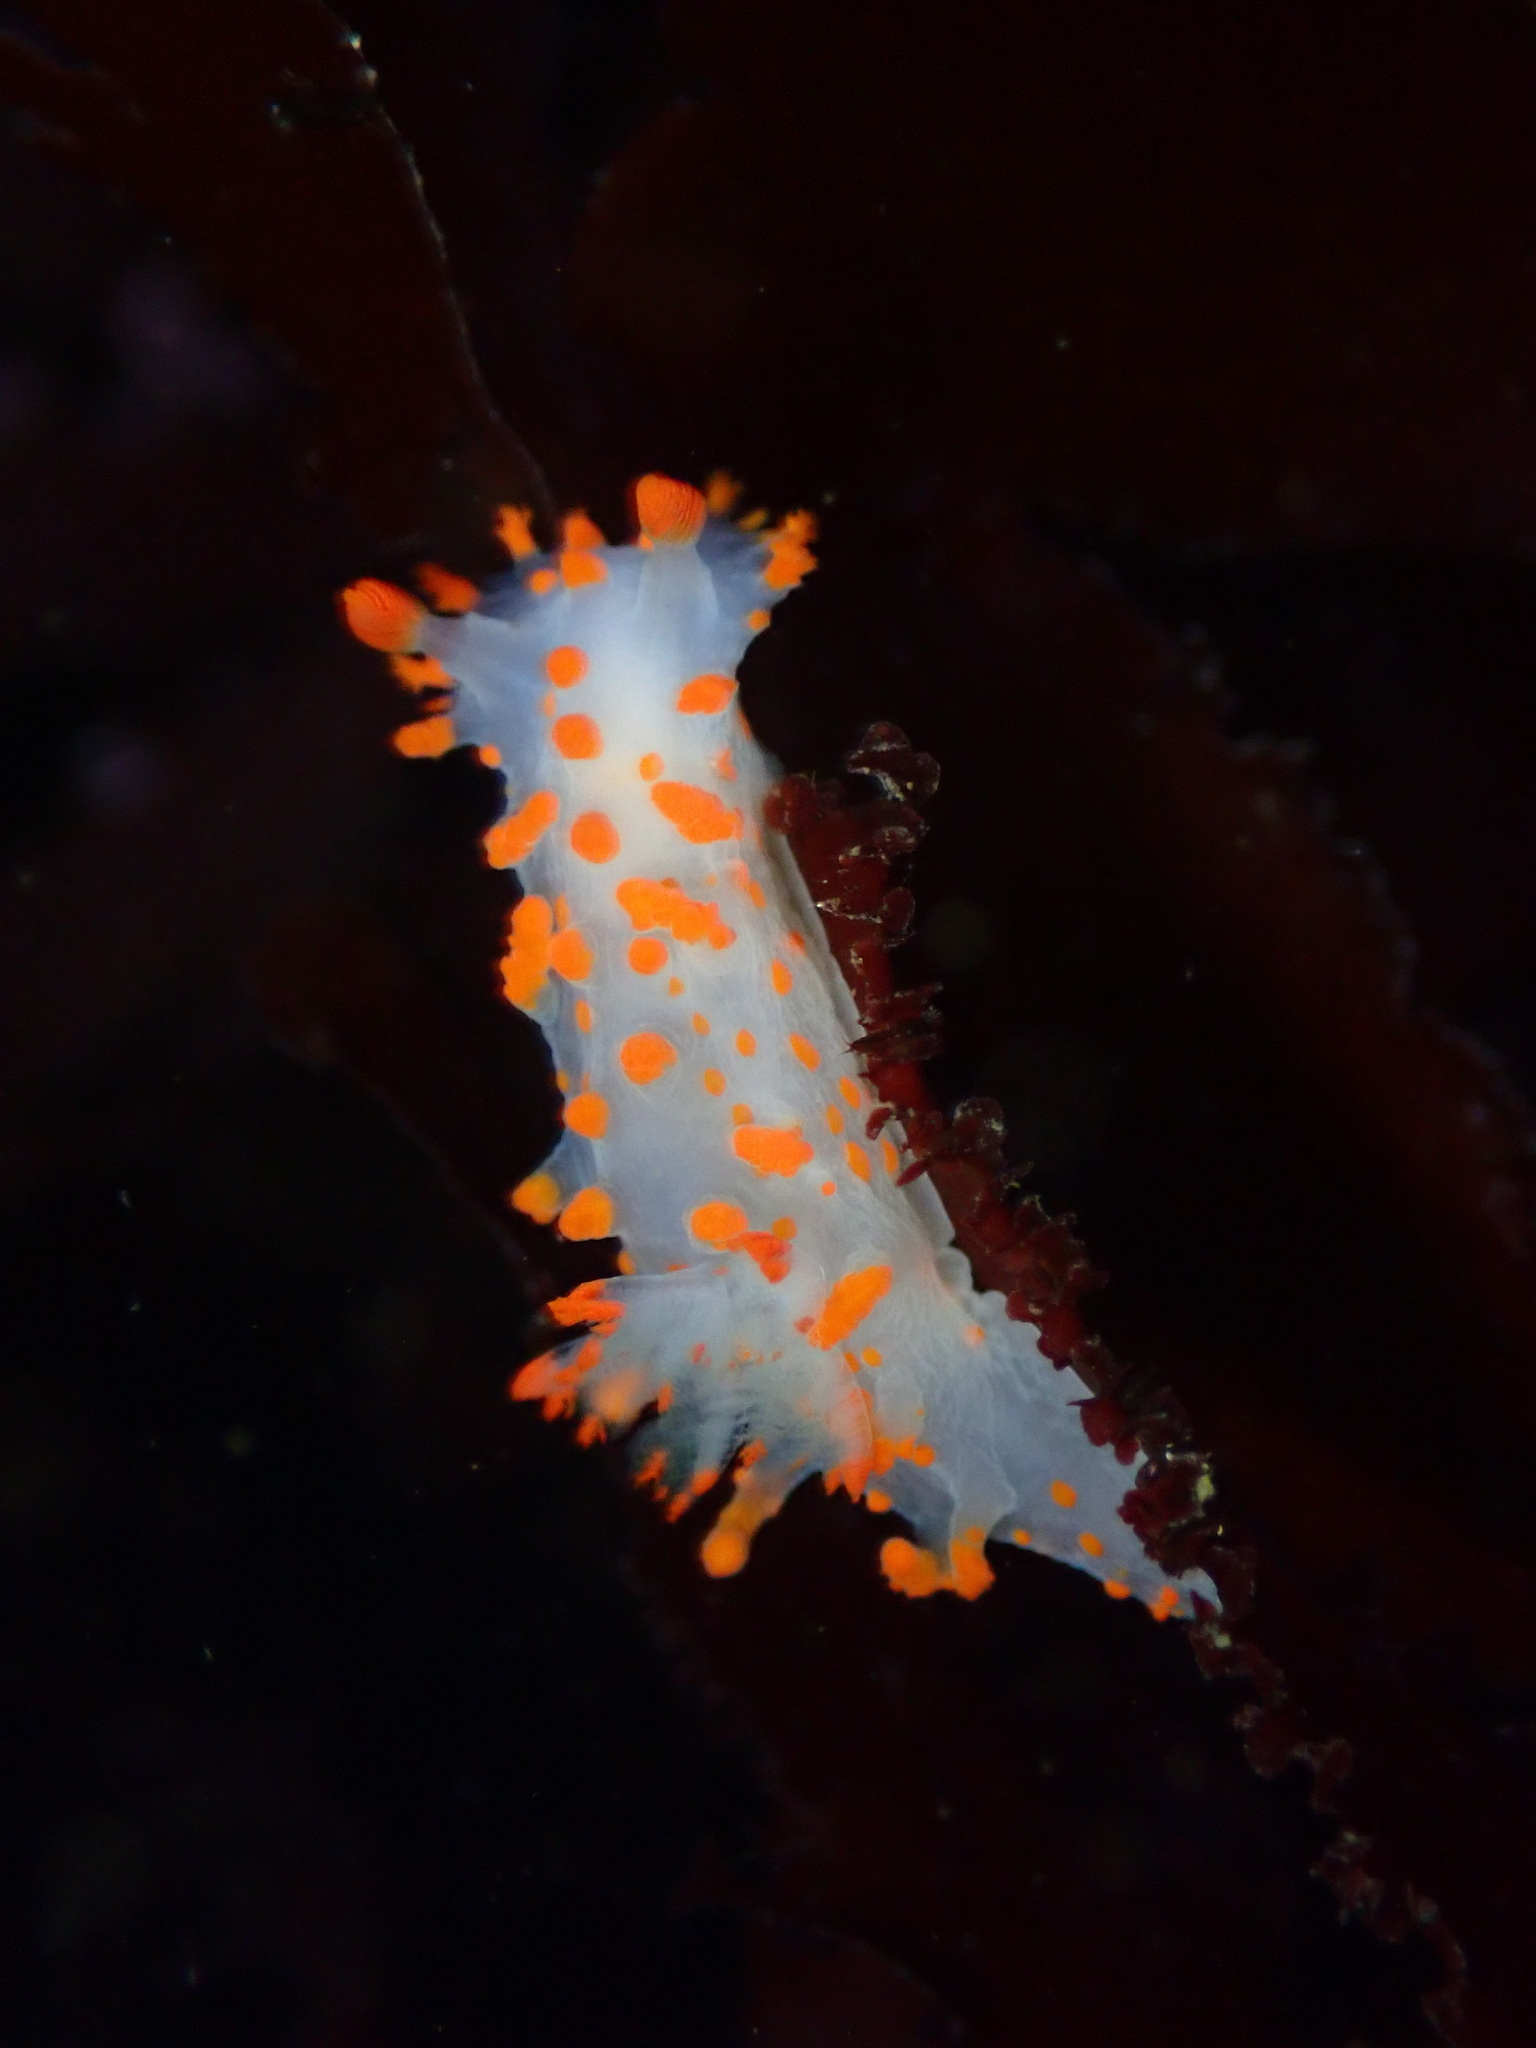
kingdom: Animalia
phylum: Mollusca
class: Gastropoda
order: Nudibranchia
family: Polyceridae
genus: Triopha
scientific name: Triopha catalinae
